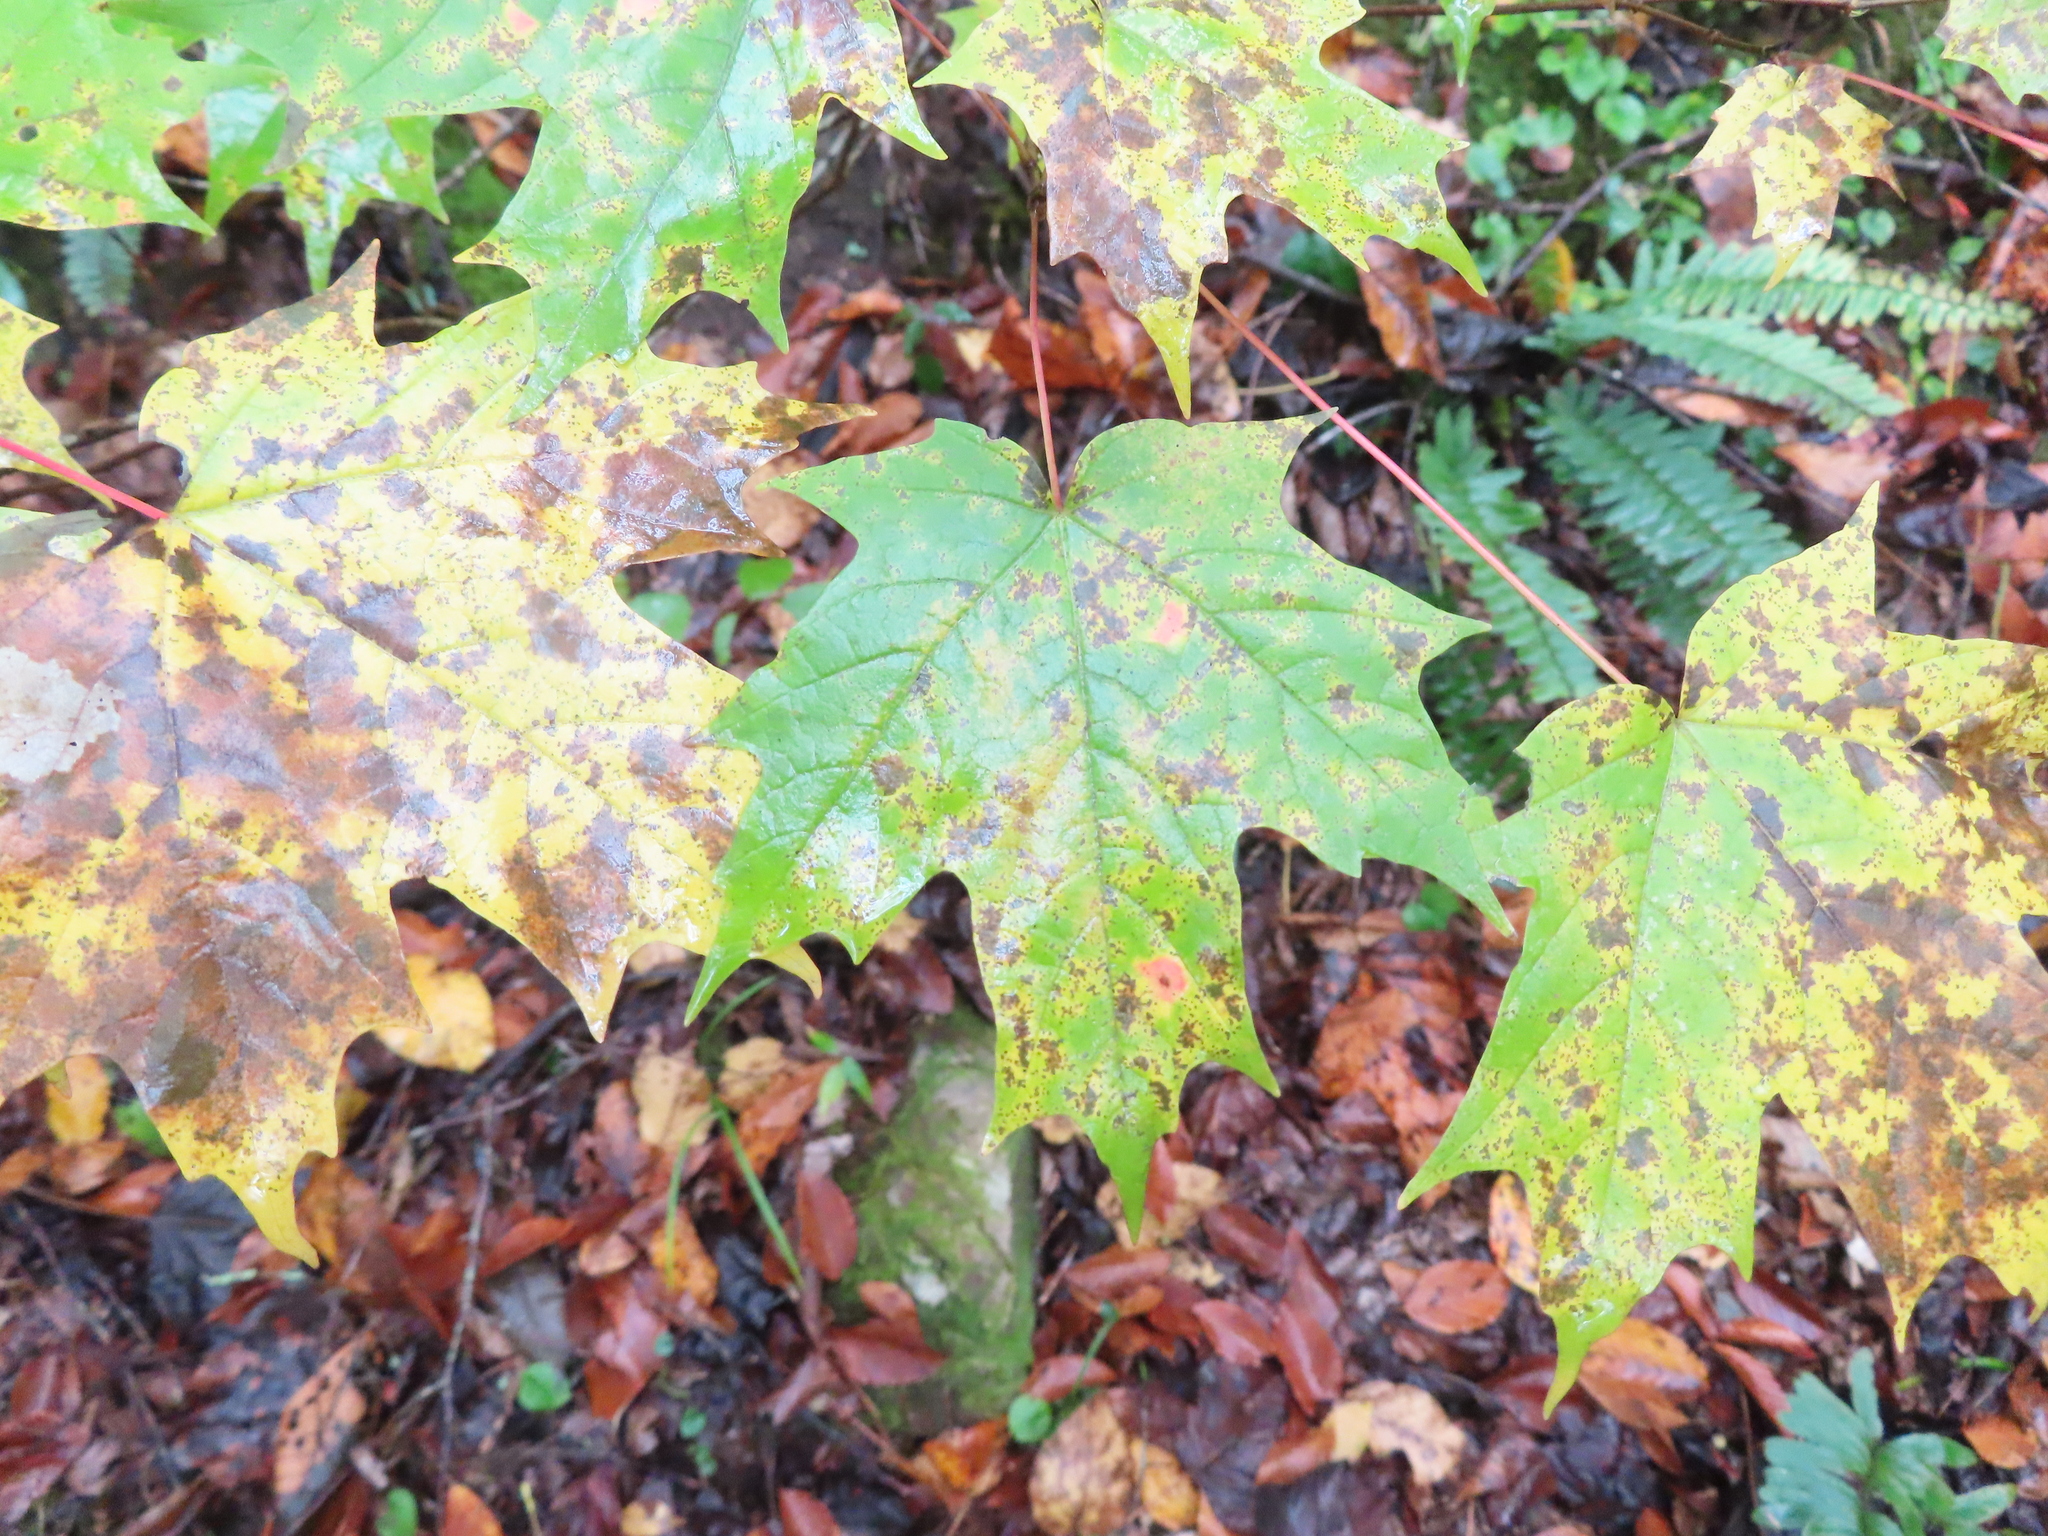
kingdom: Plantae
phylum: Tracheophyta
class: Magnoliopsida
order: Sapindales
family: Sapindaceae
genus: Acer
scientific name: Acer saccharum
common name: Sugar maple
